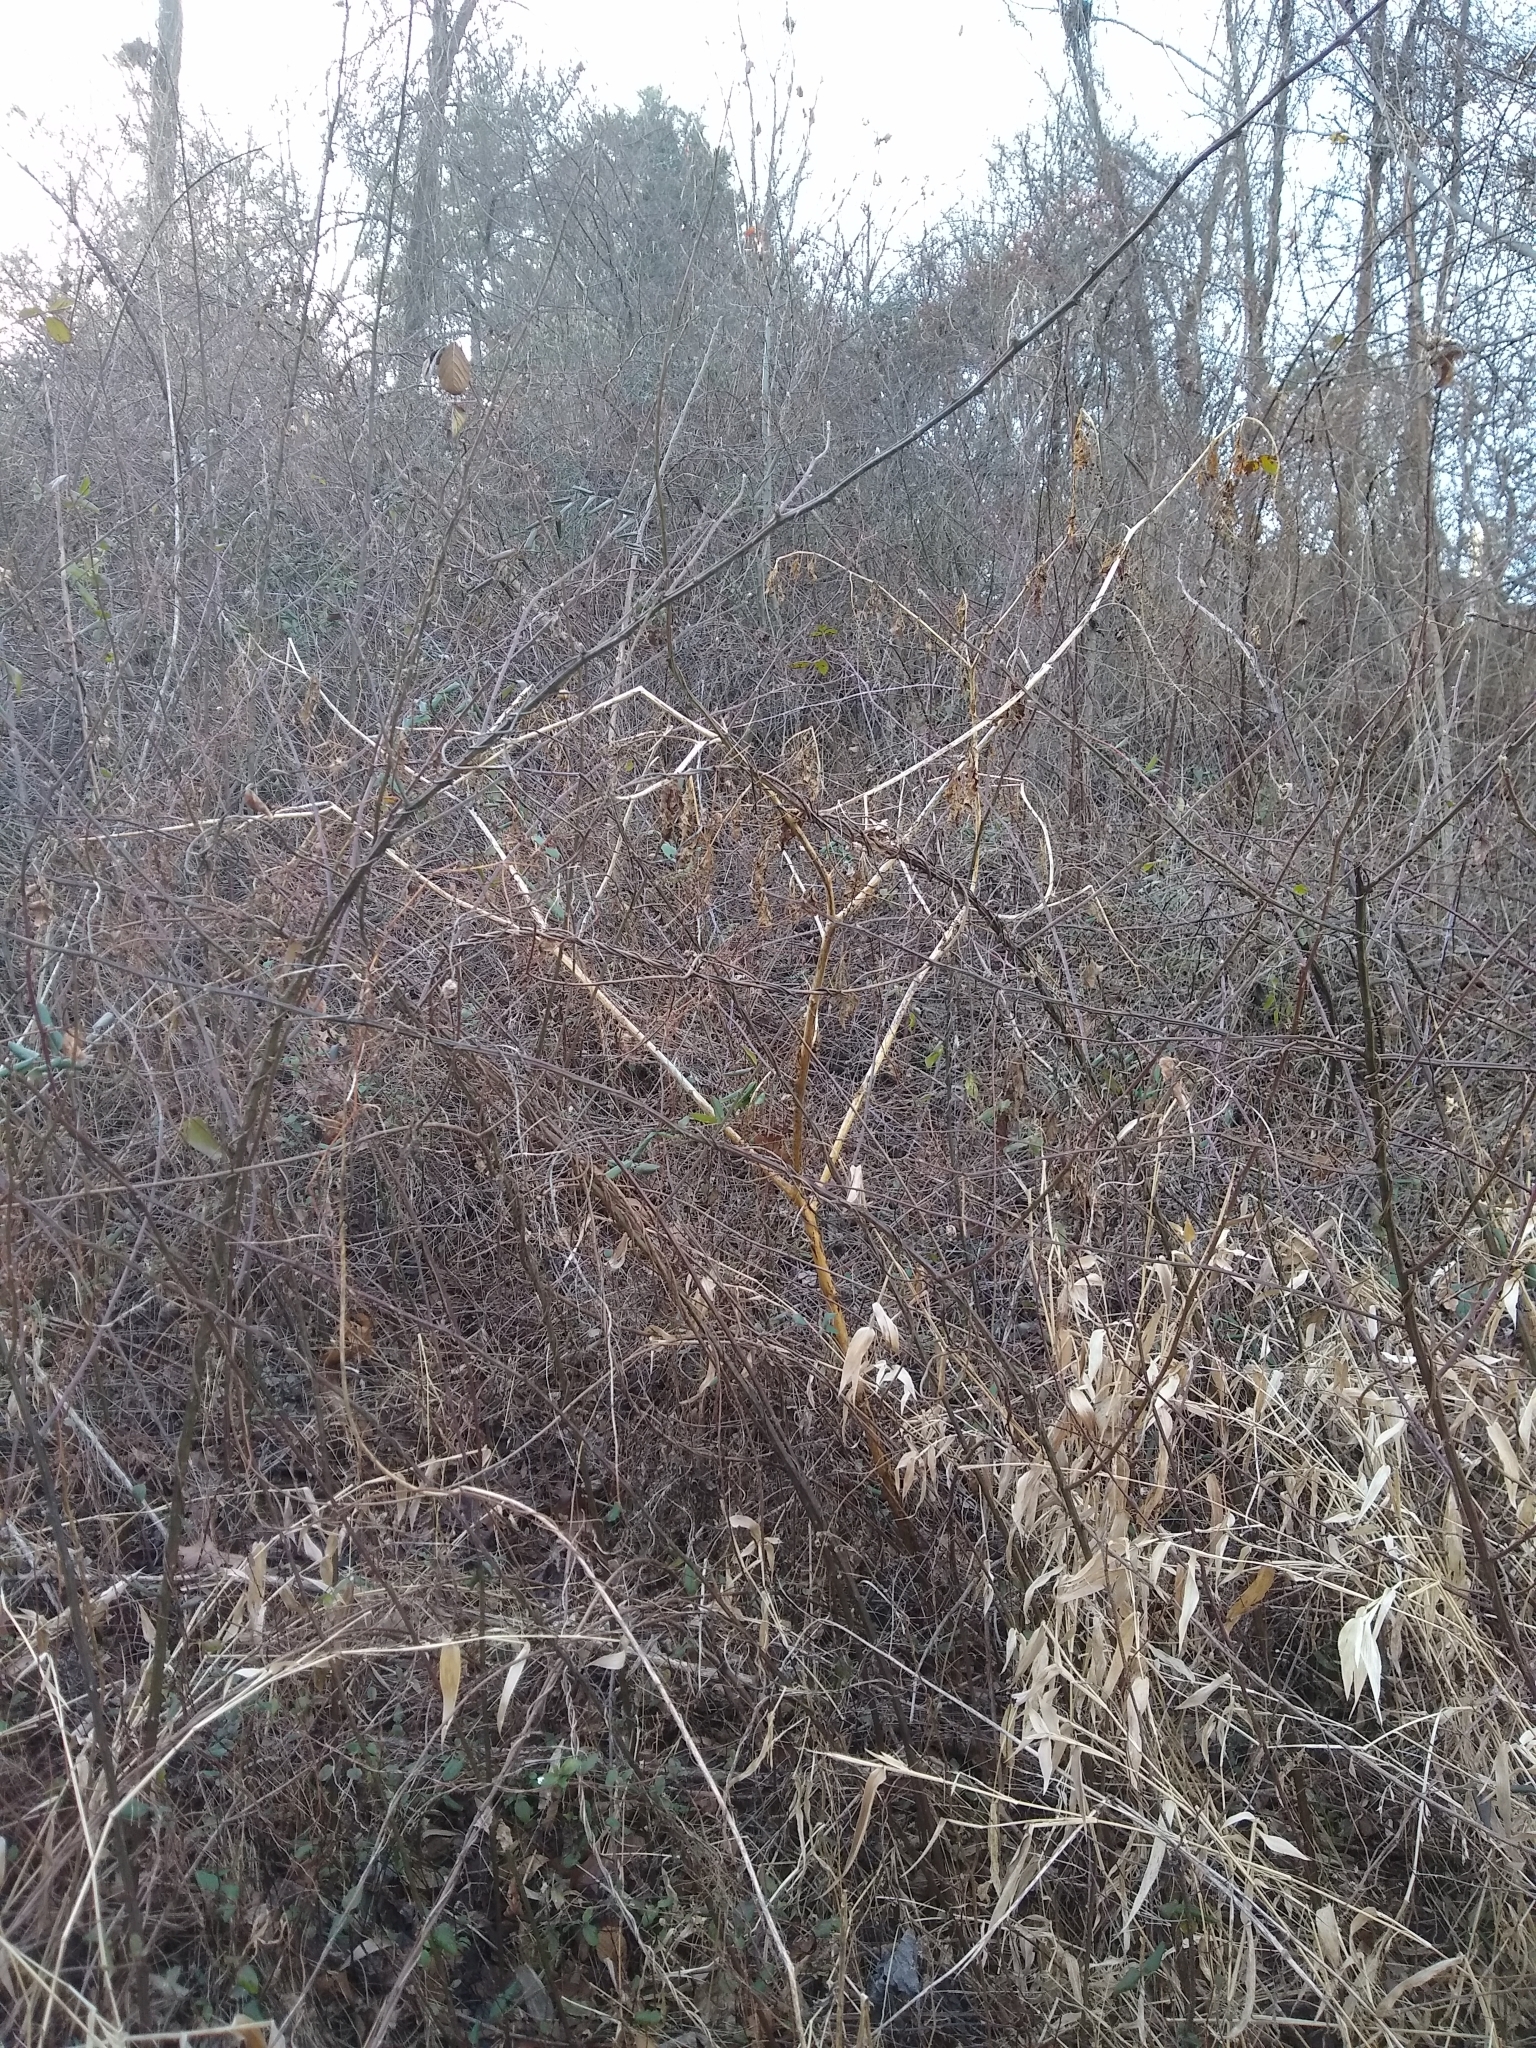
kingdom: Plantae
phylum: Tracheophyta
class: Magnoliopsida
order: Caryophyllales
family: Phytolaccaceae
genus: Phytolacca
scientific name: Phytolacca americana
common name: American pokeweed
